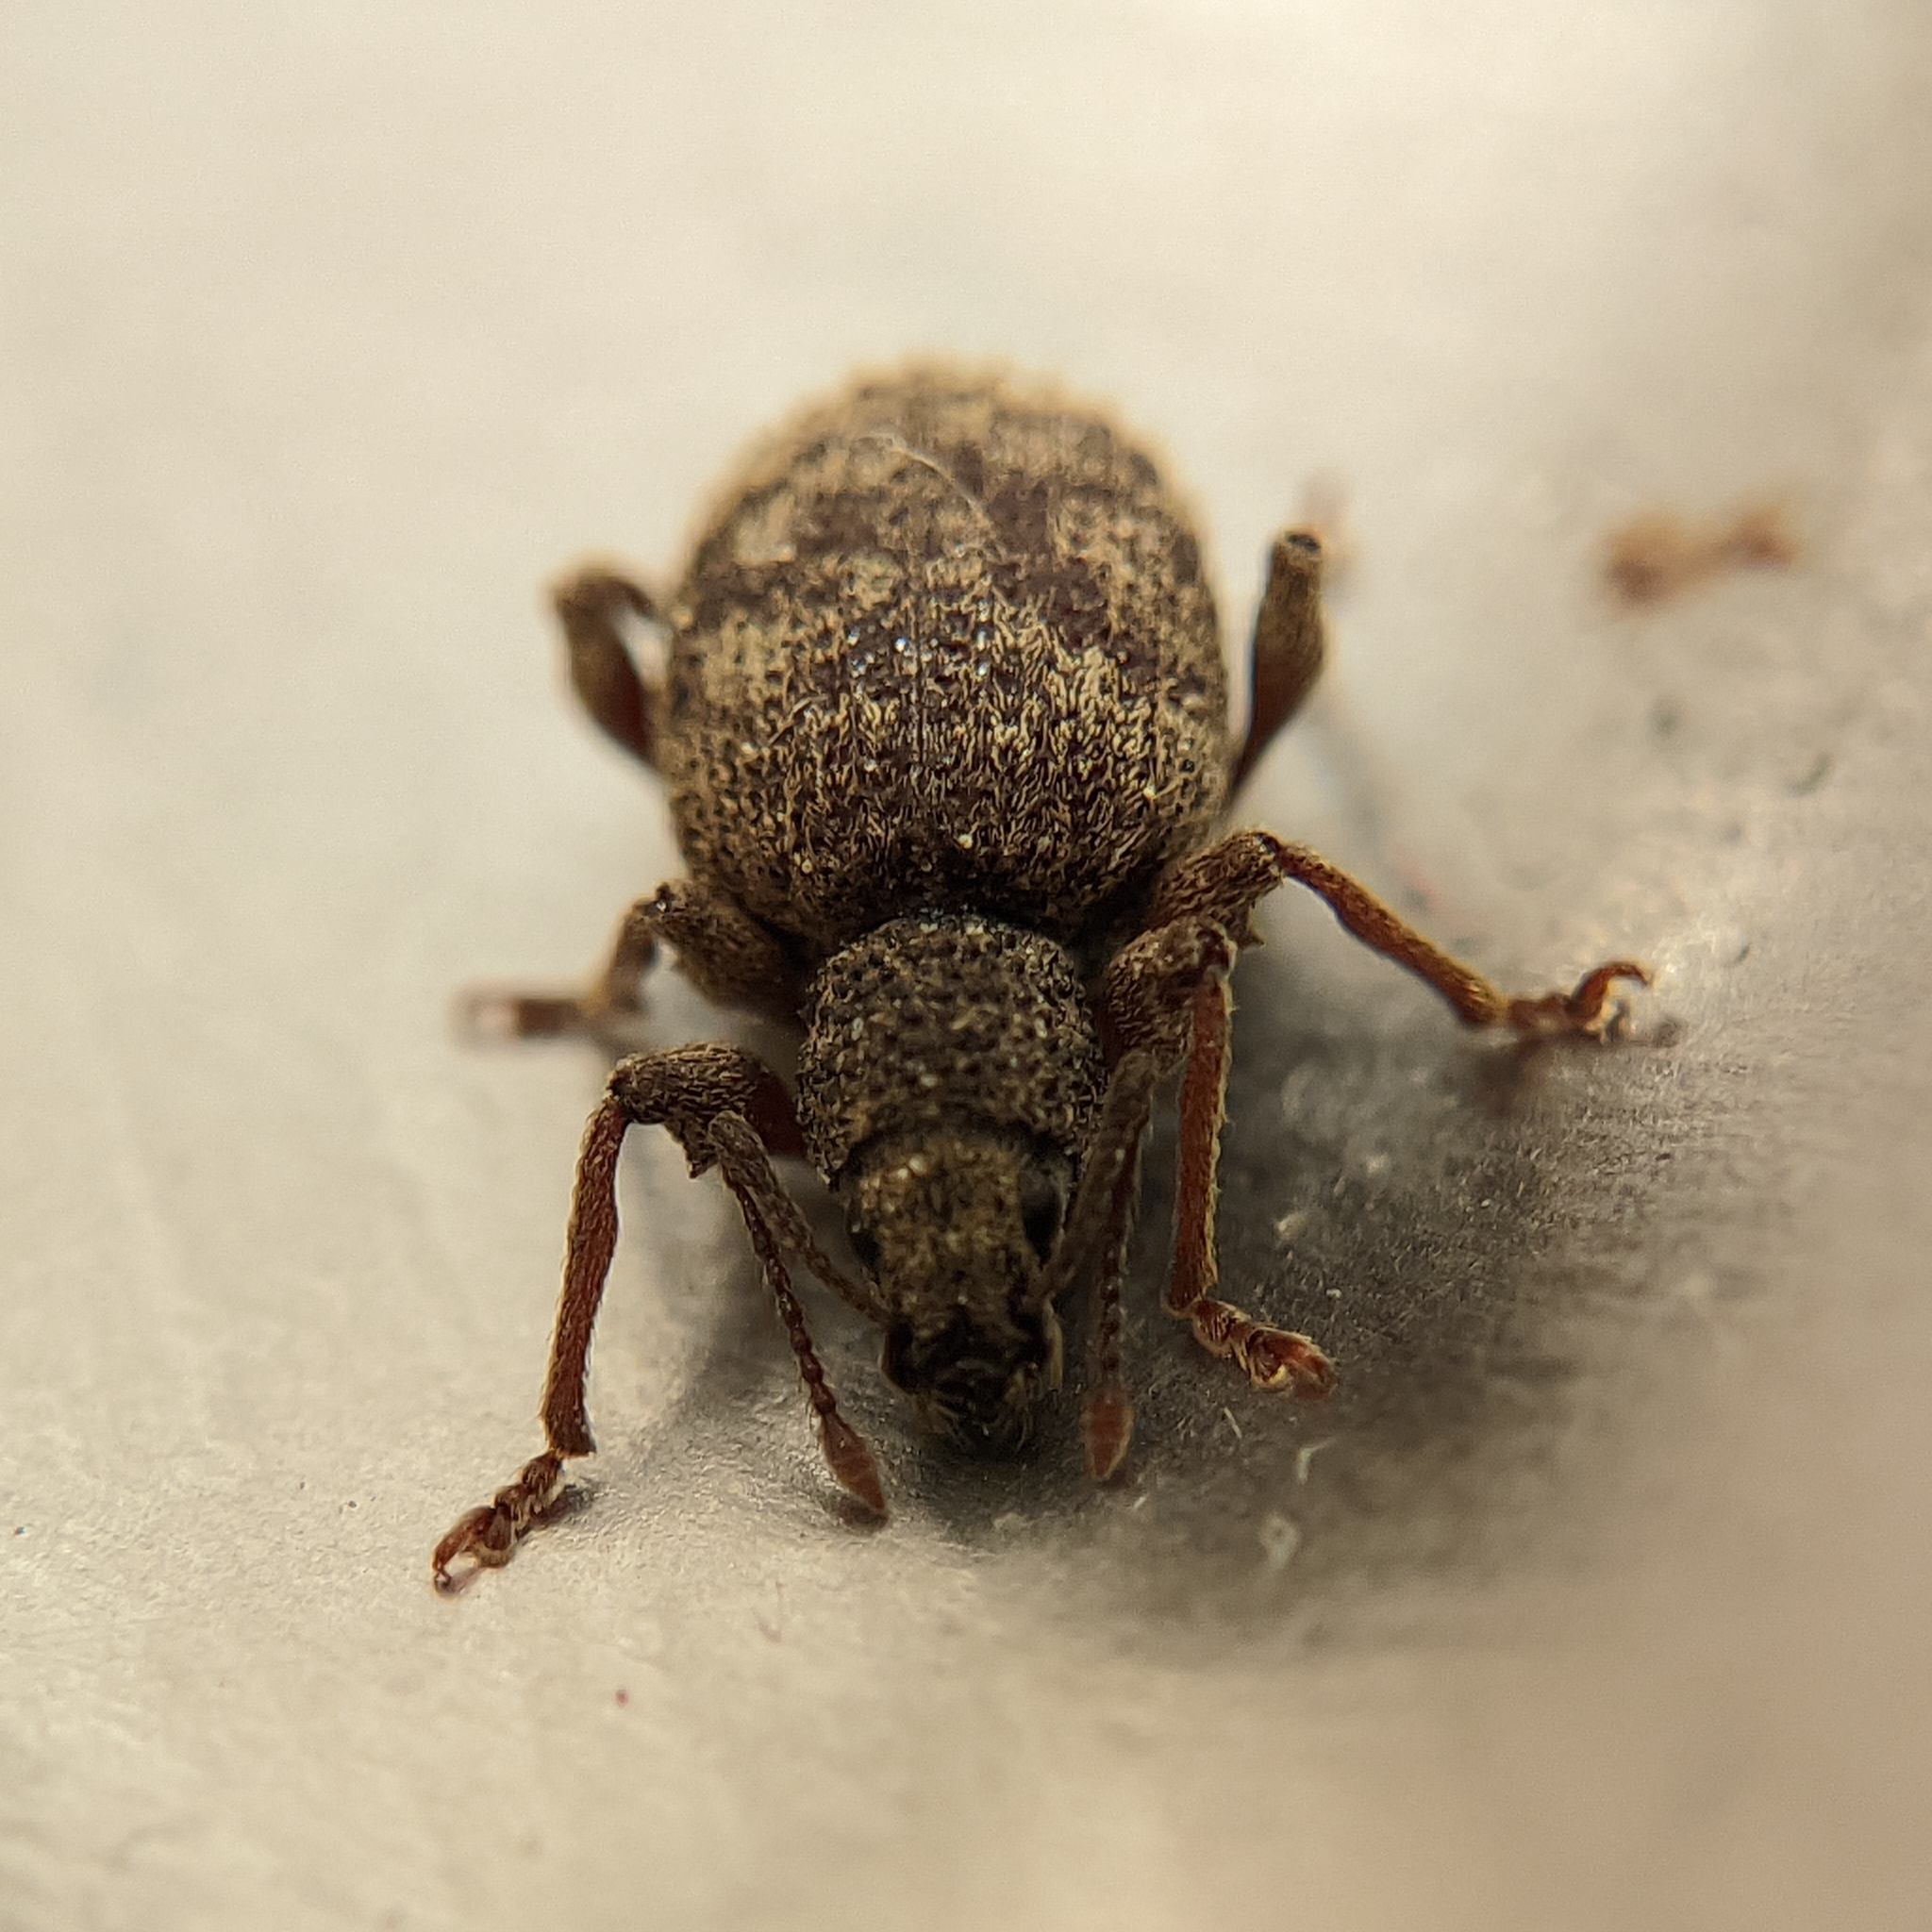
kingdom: Animalia
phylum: Arthropoda
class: Insecta
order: Coleoptera
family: Curculionidae
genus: Otiorhynchus
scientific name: Otiorhynchus crataegi
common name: Privet weevil
